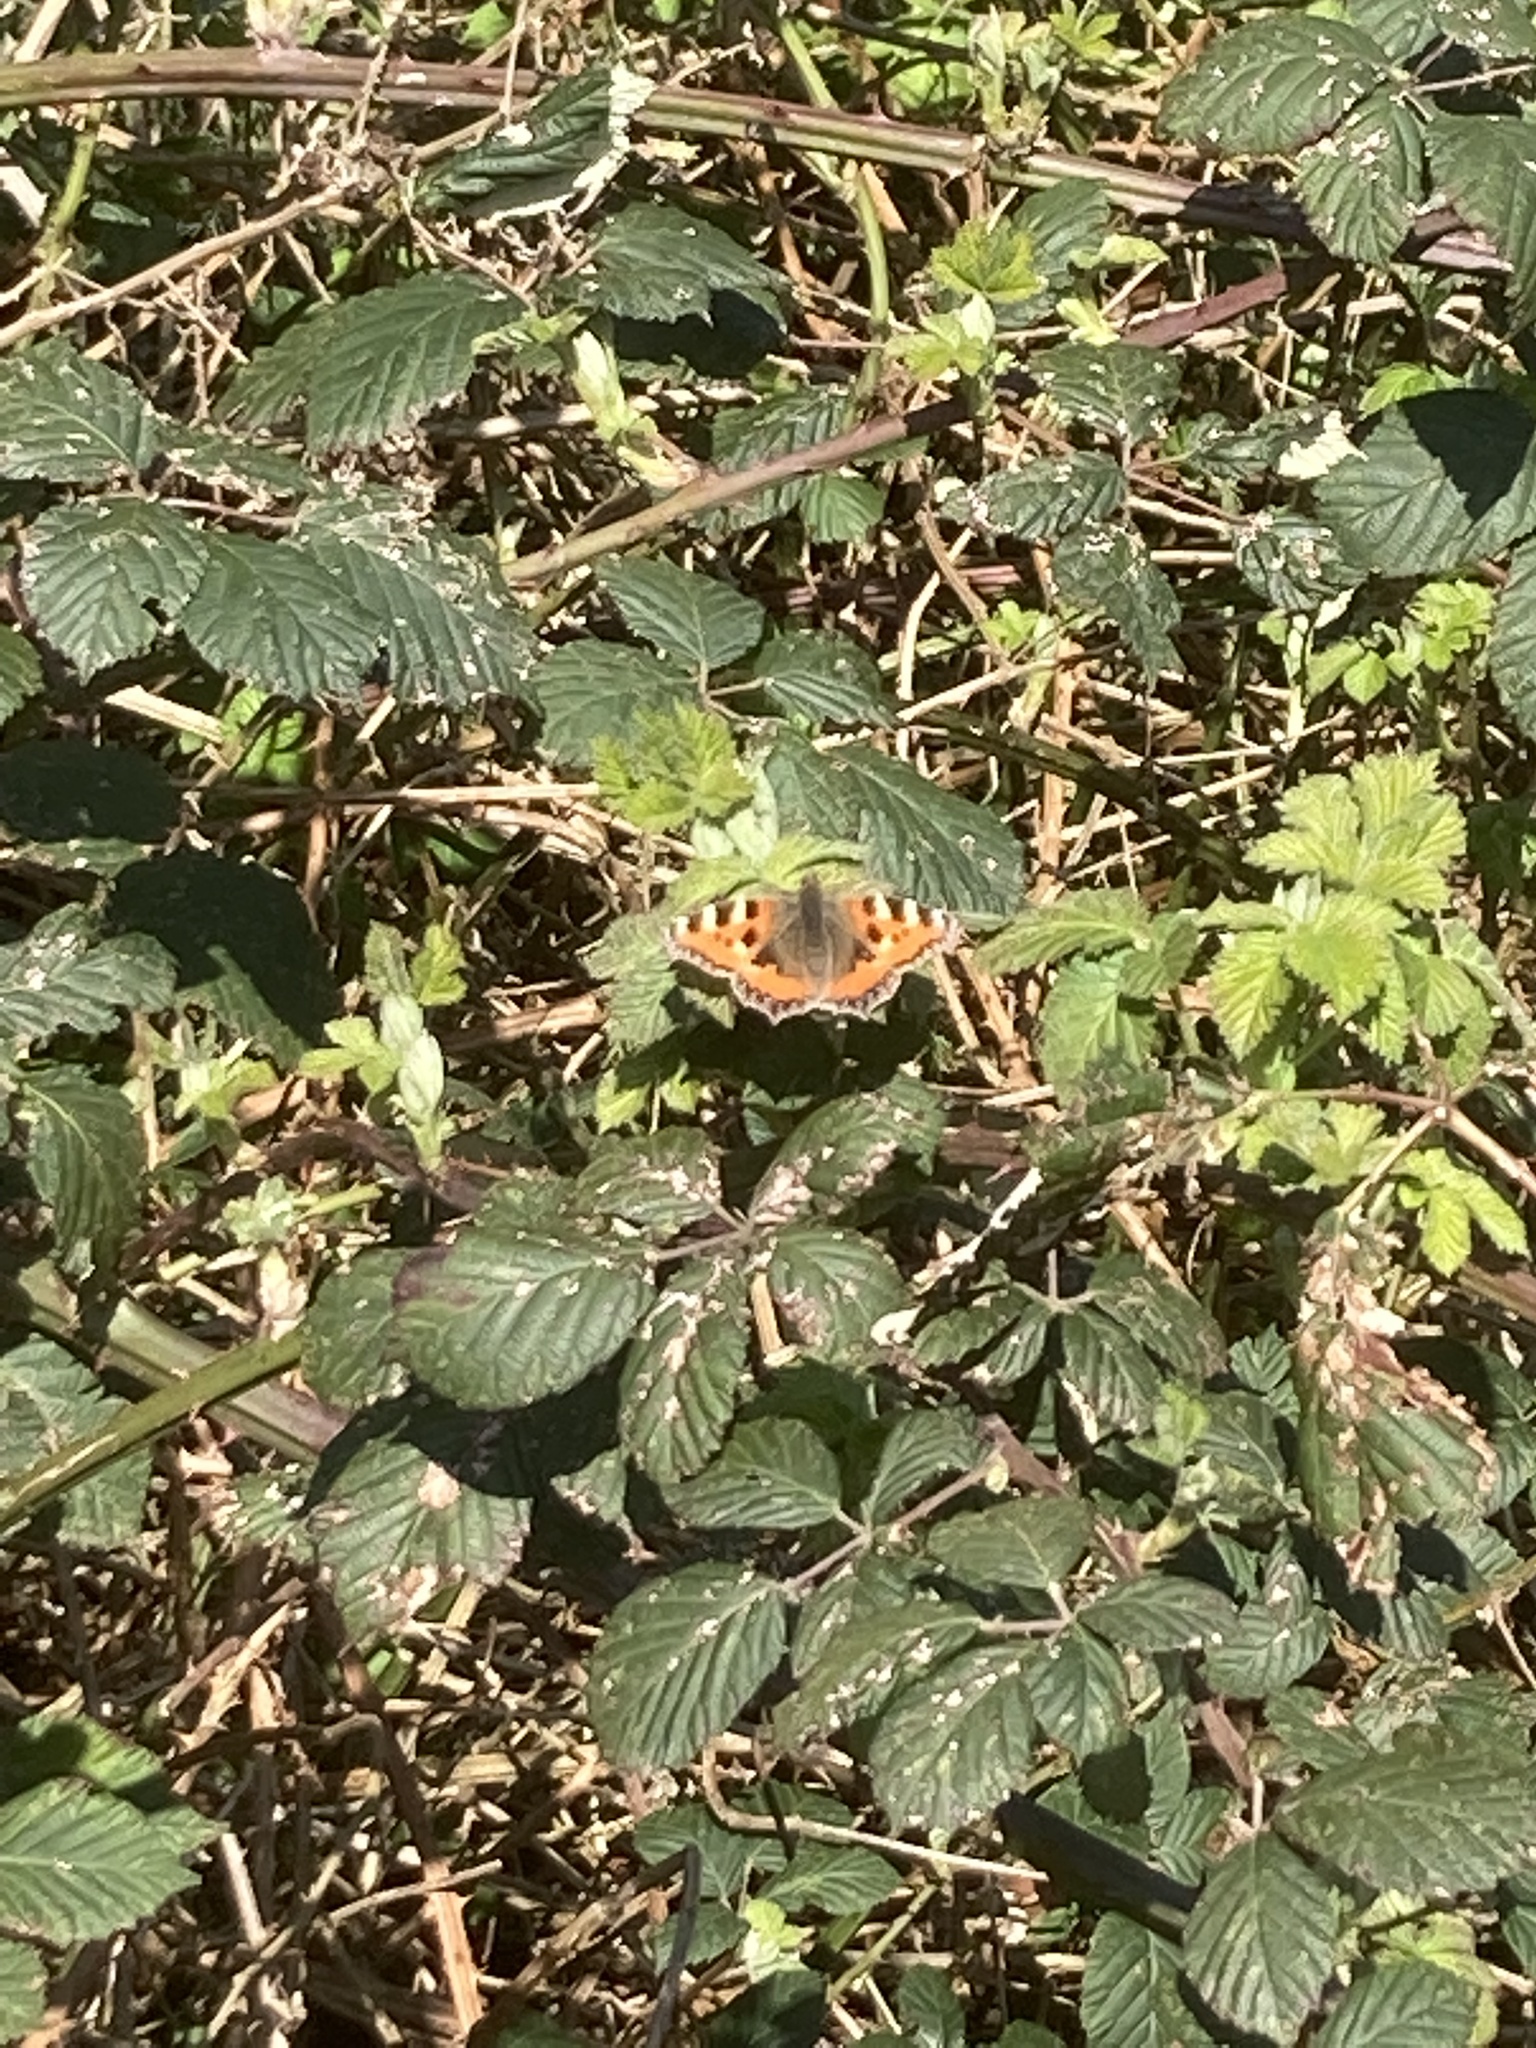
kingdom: Animalia
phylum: Arthropoda
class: Insecta
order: Lepidoptera
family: Nymphalidae
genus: Aglais
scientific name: Aglais urticae
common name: Small tortoiseshell
